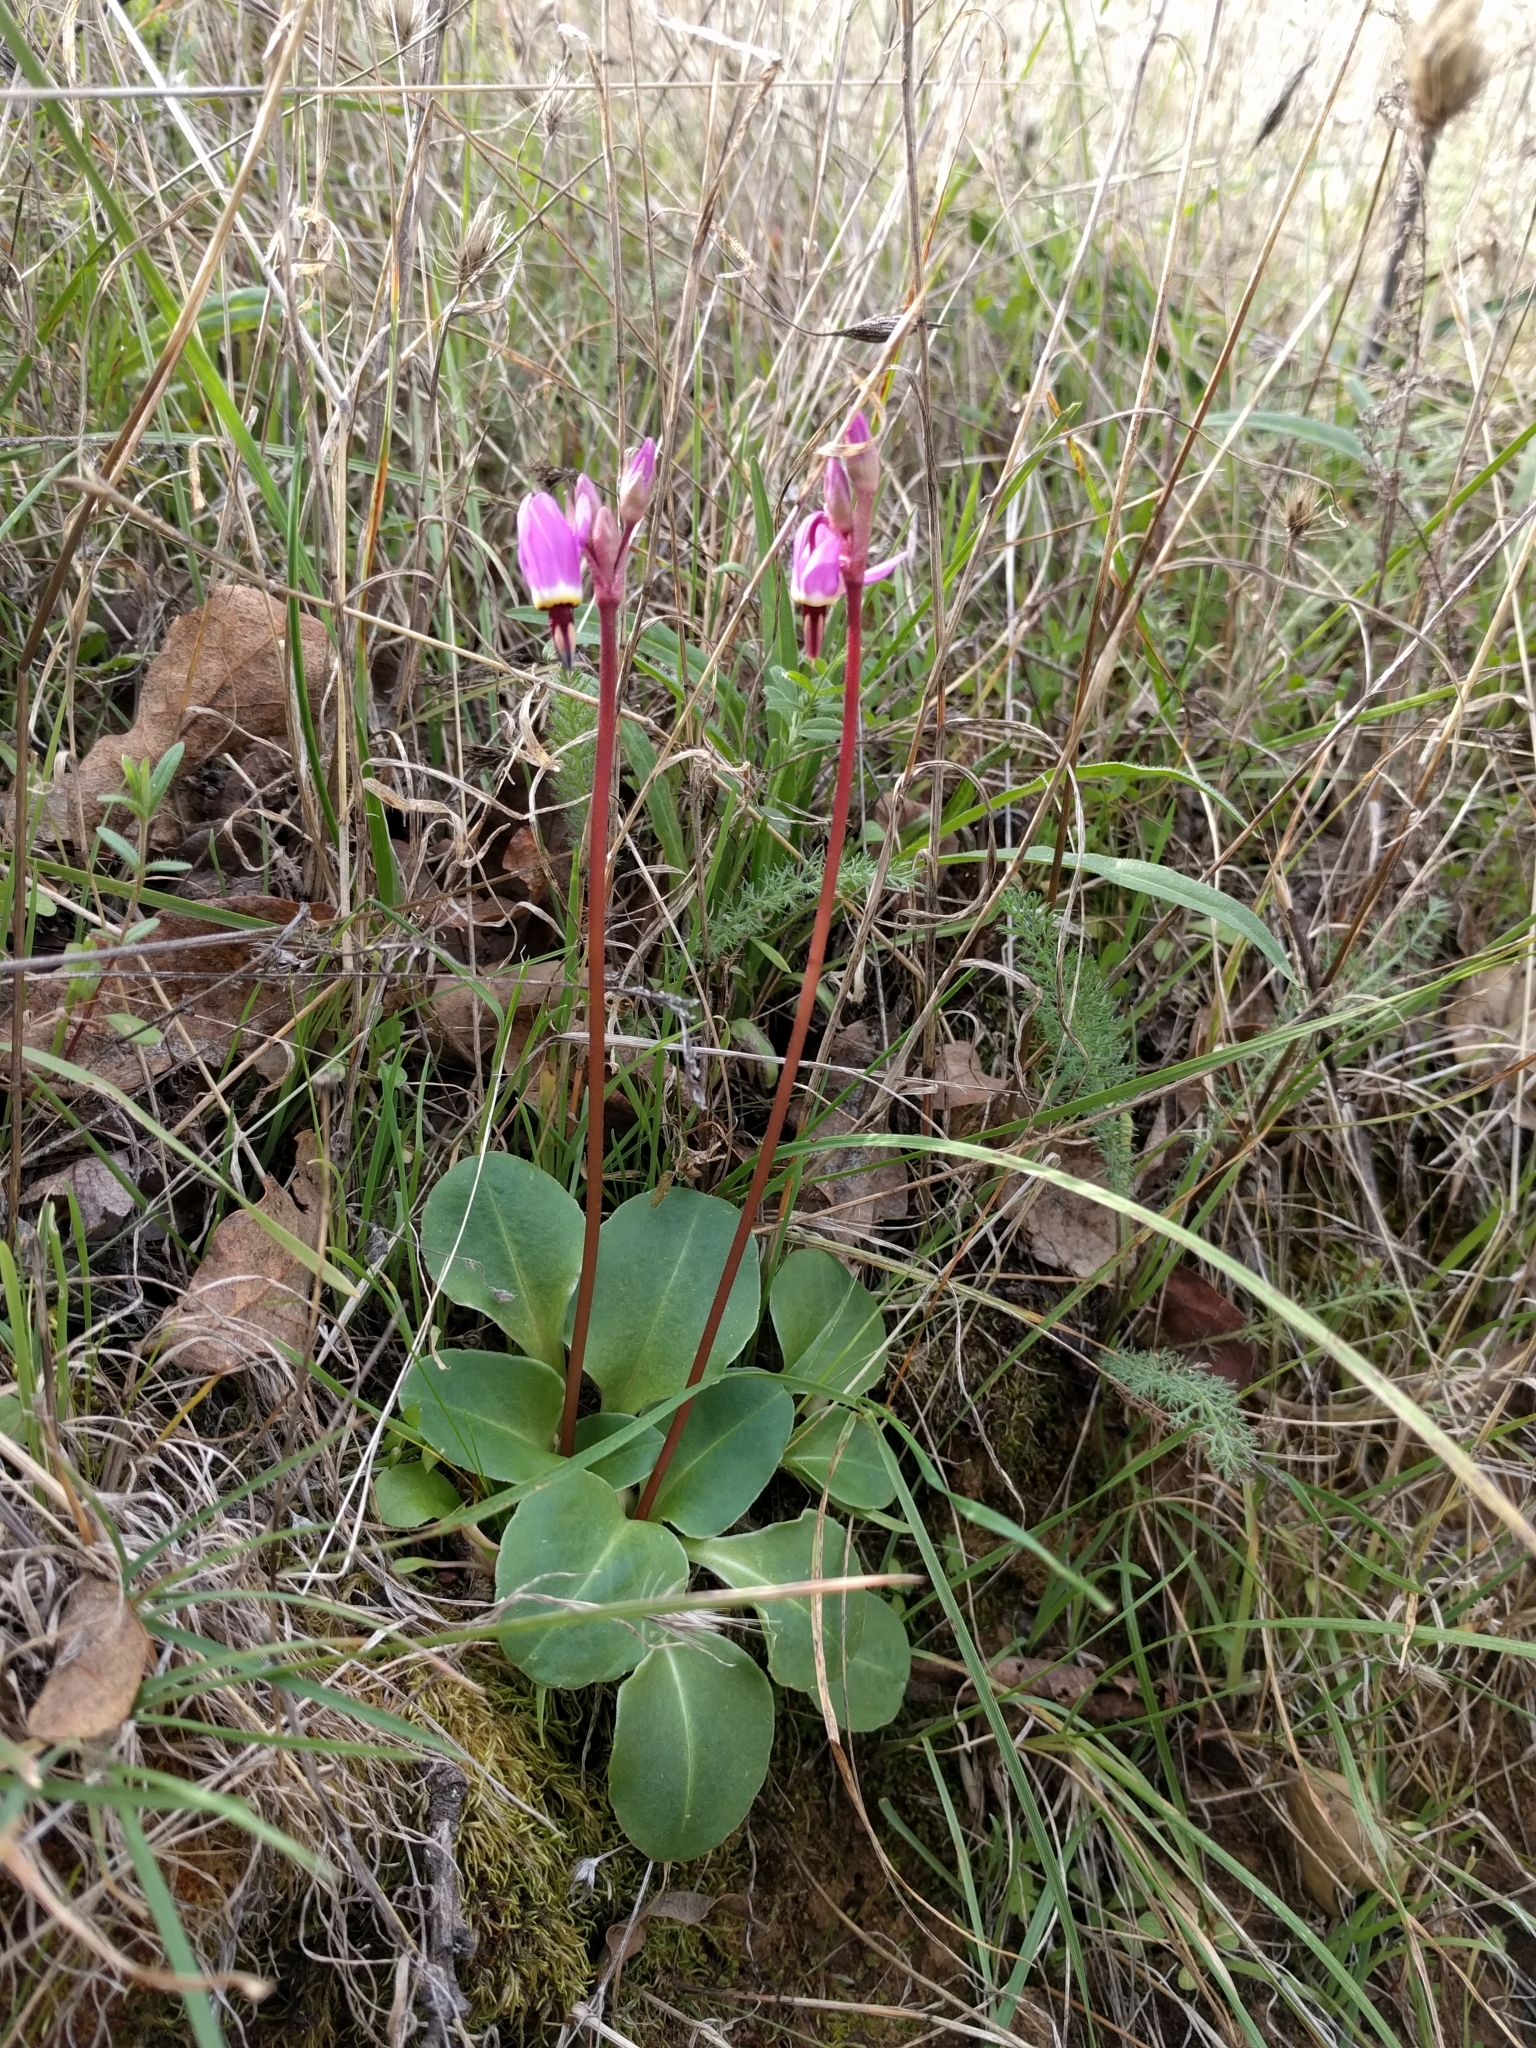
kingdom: Plantae
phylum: Tracheophyta
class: Magnoliopsida
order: Ericales
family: Primulaceae
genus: Dodecatheon
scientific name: Dodecatheon hendersonii
